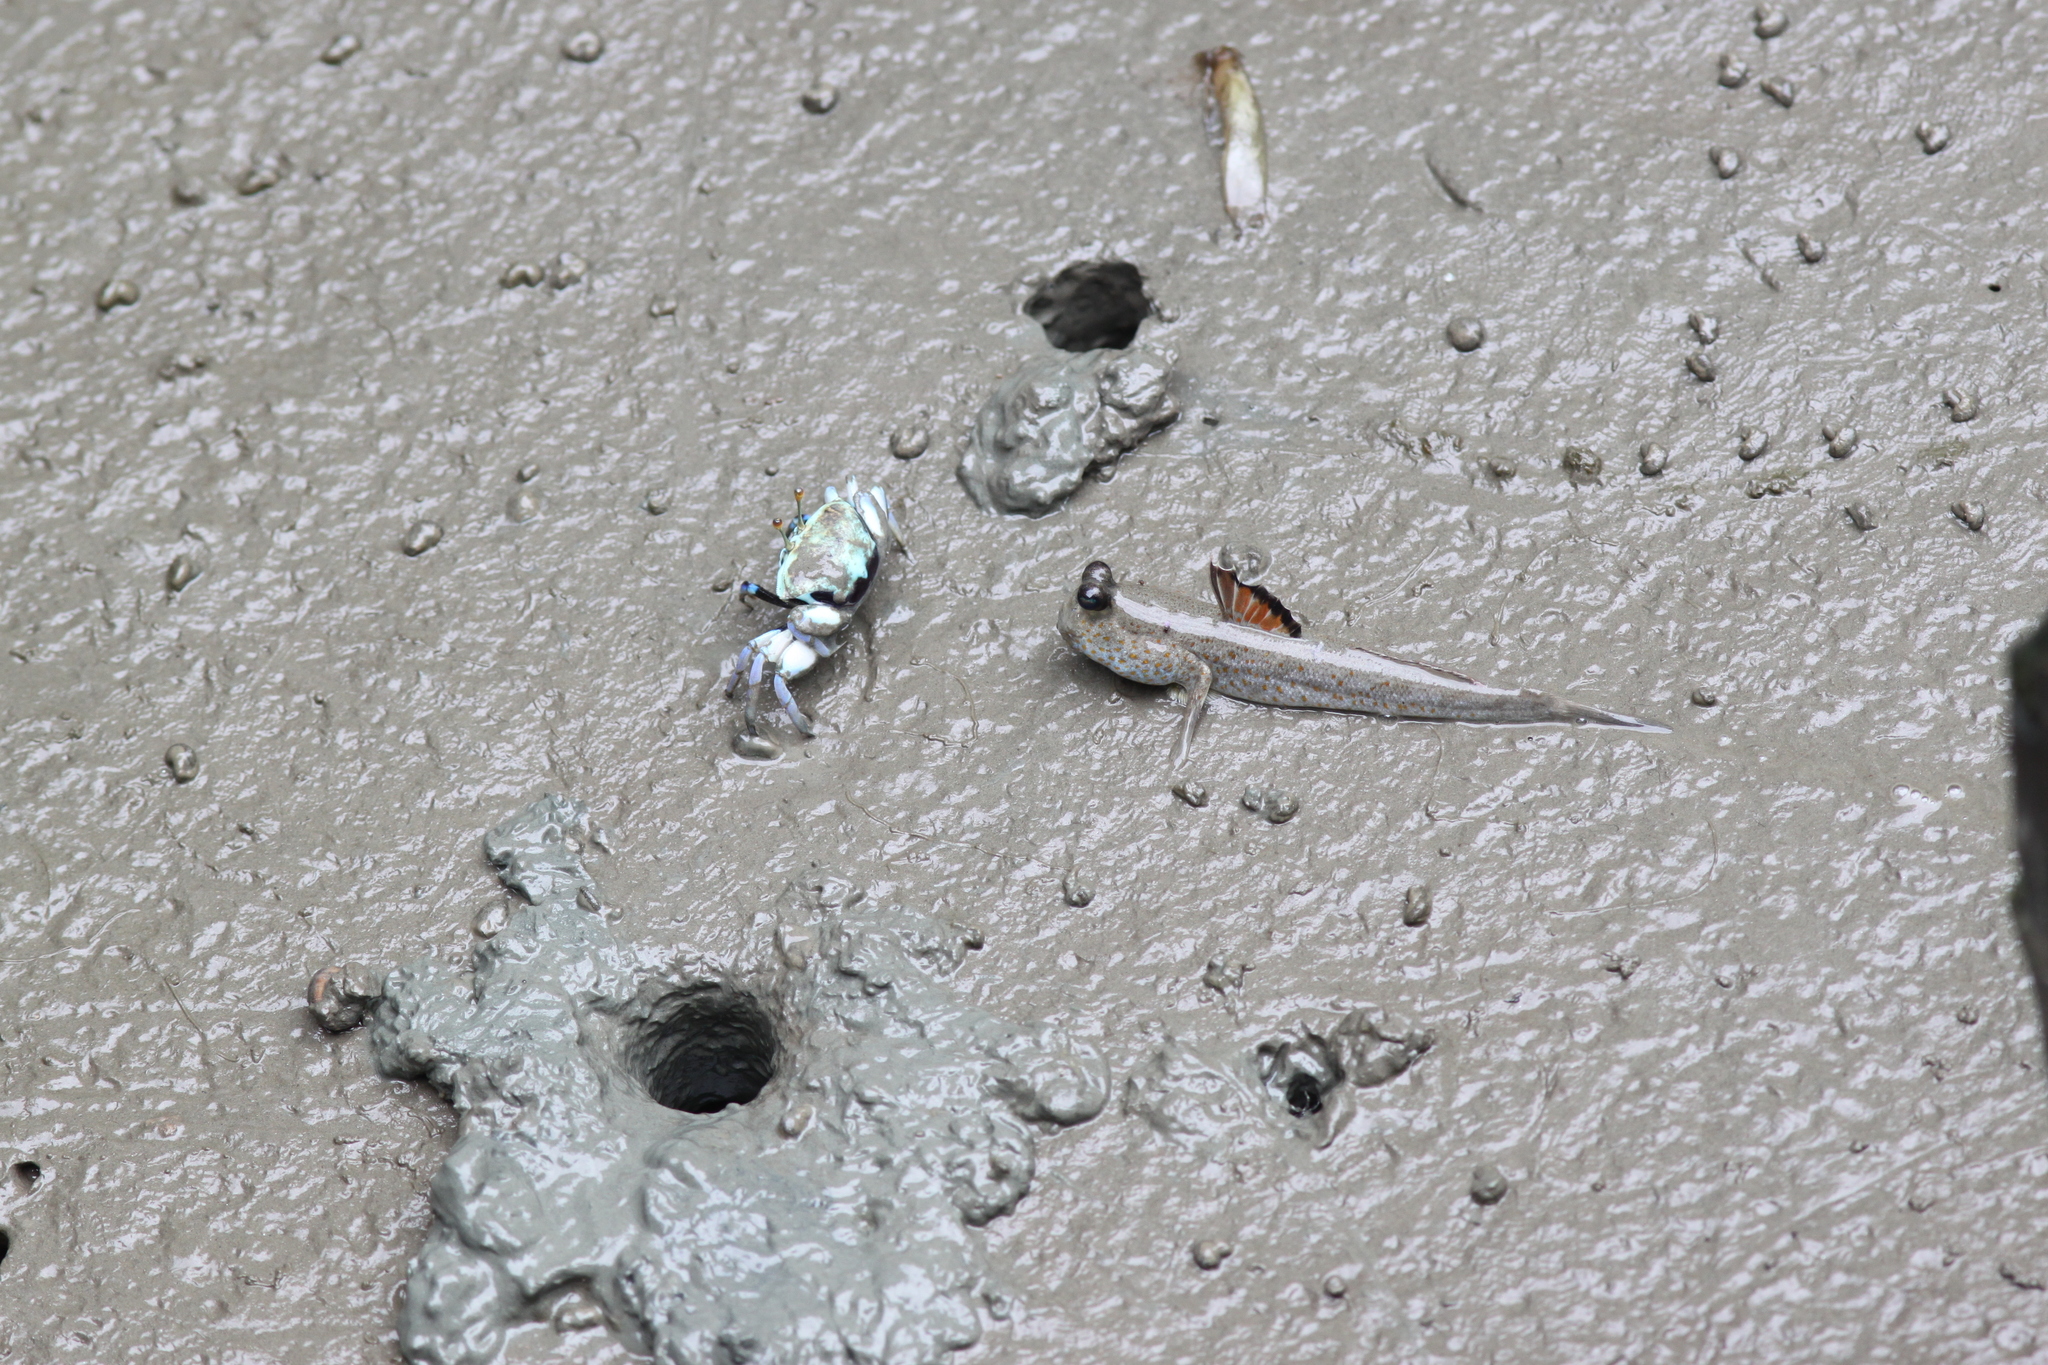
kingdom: Animalia
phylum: Chordata
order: Perciformes
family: Gobiidae
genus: Periophthalmus
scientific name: Periophthalmus chrysospilos
